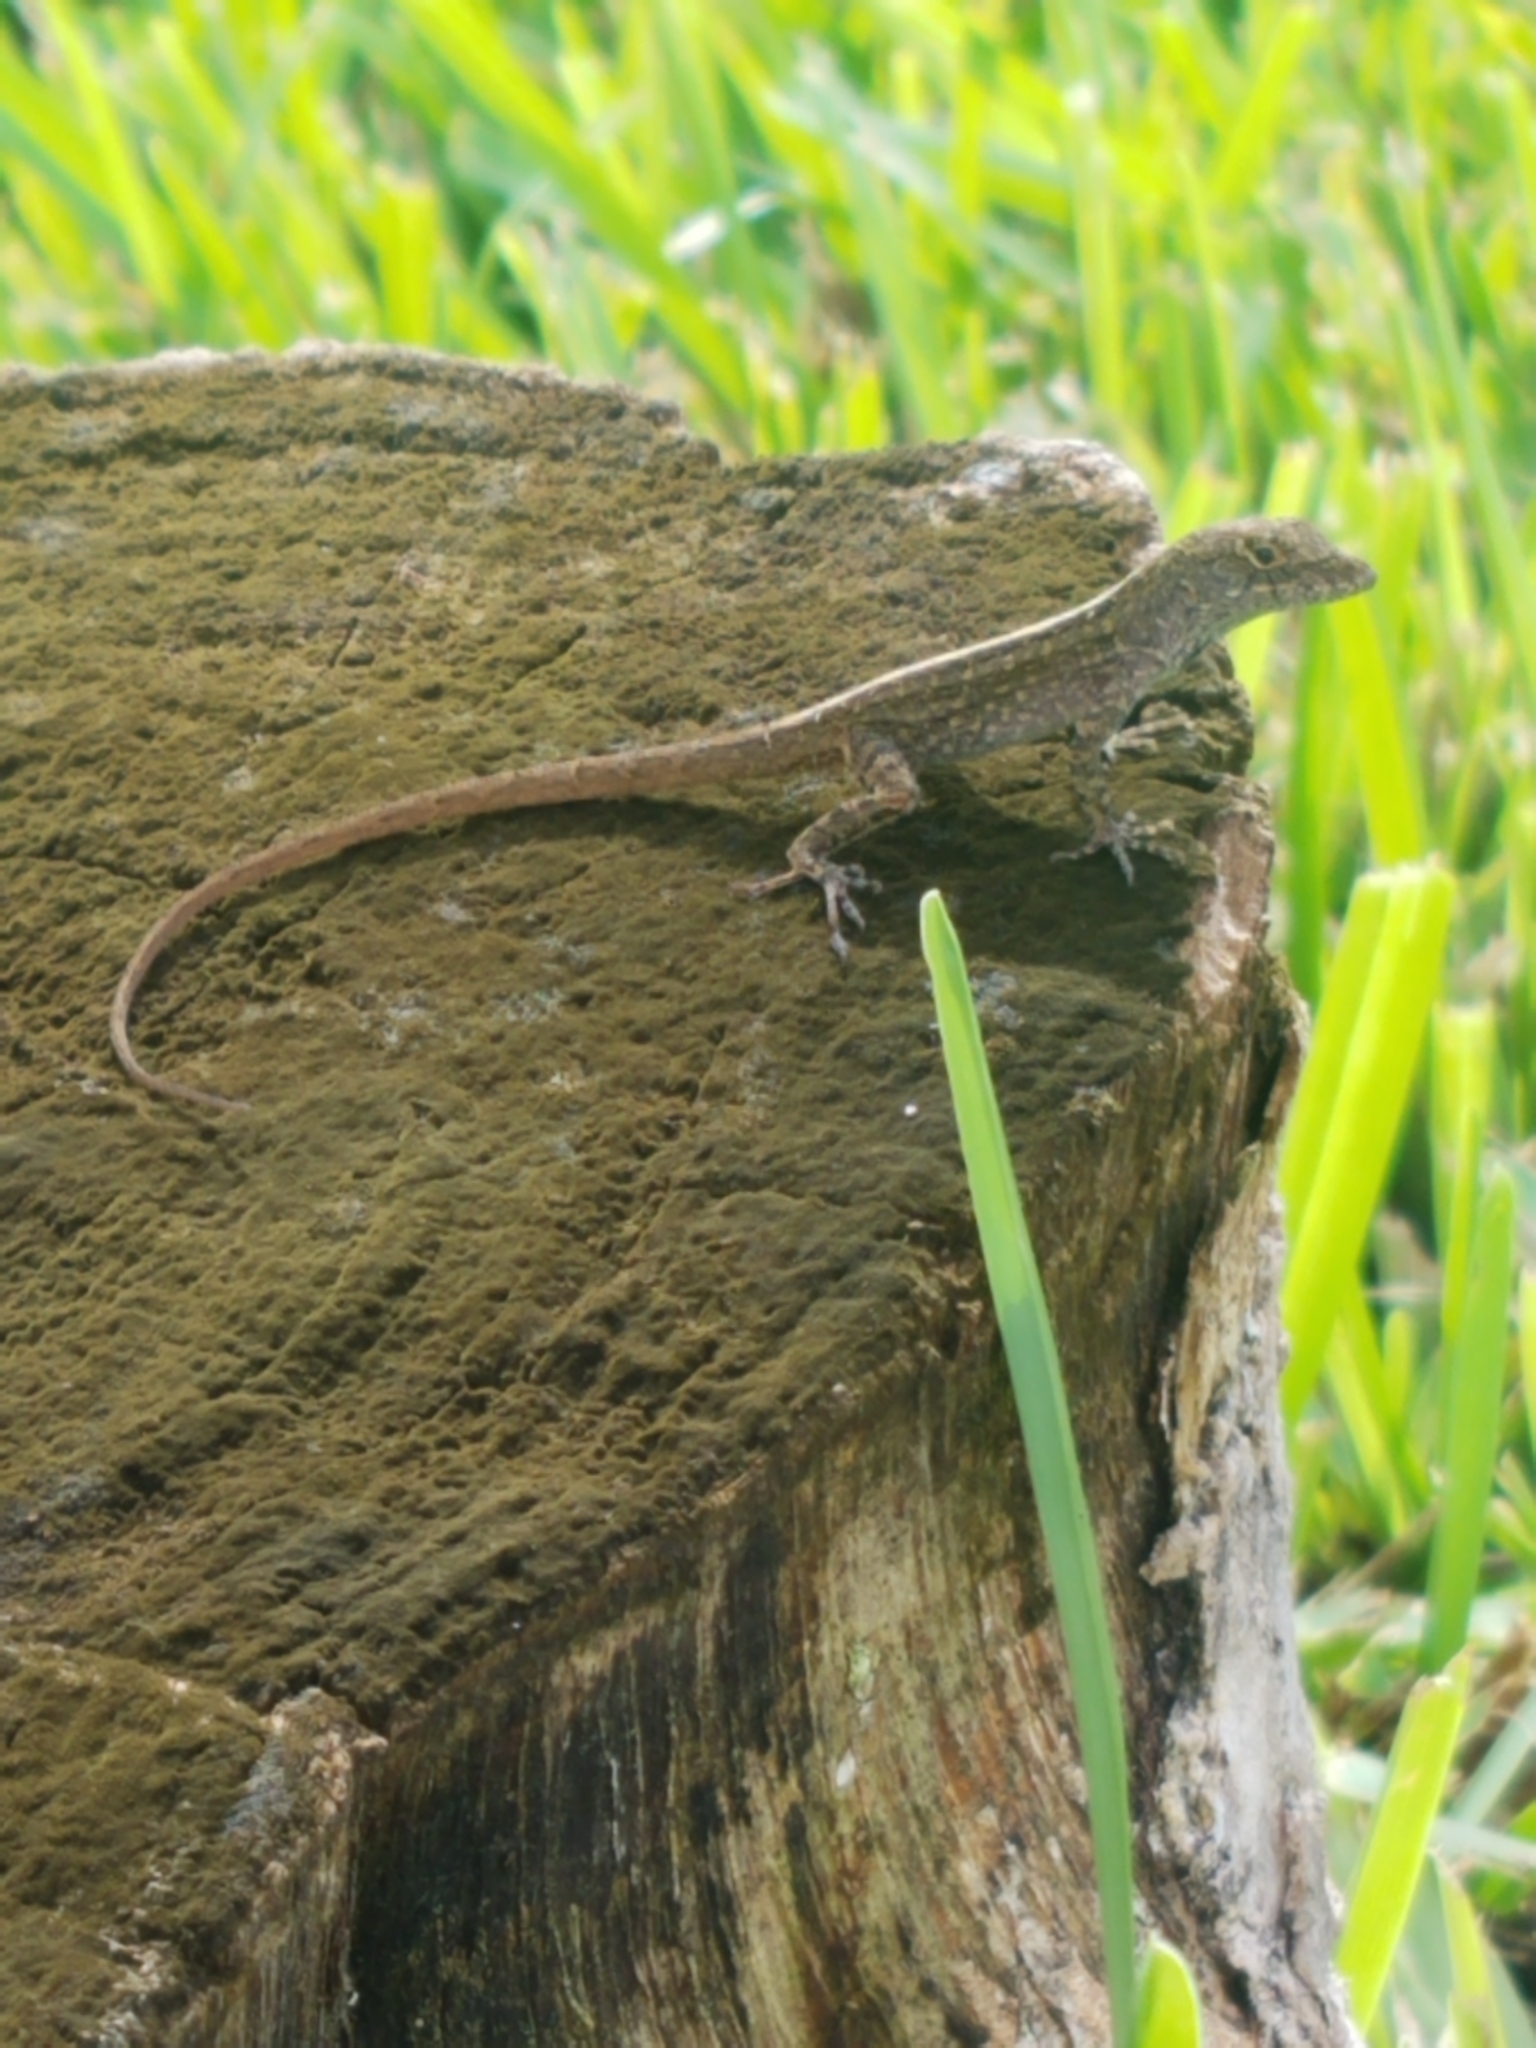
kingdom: Animalia
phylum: Chordata
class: Squamata
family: Dactyloidae
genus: Anolis
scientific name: Anolis sagrei
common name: Brown anole
